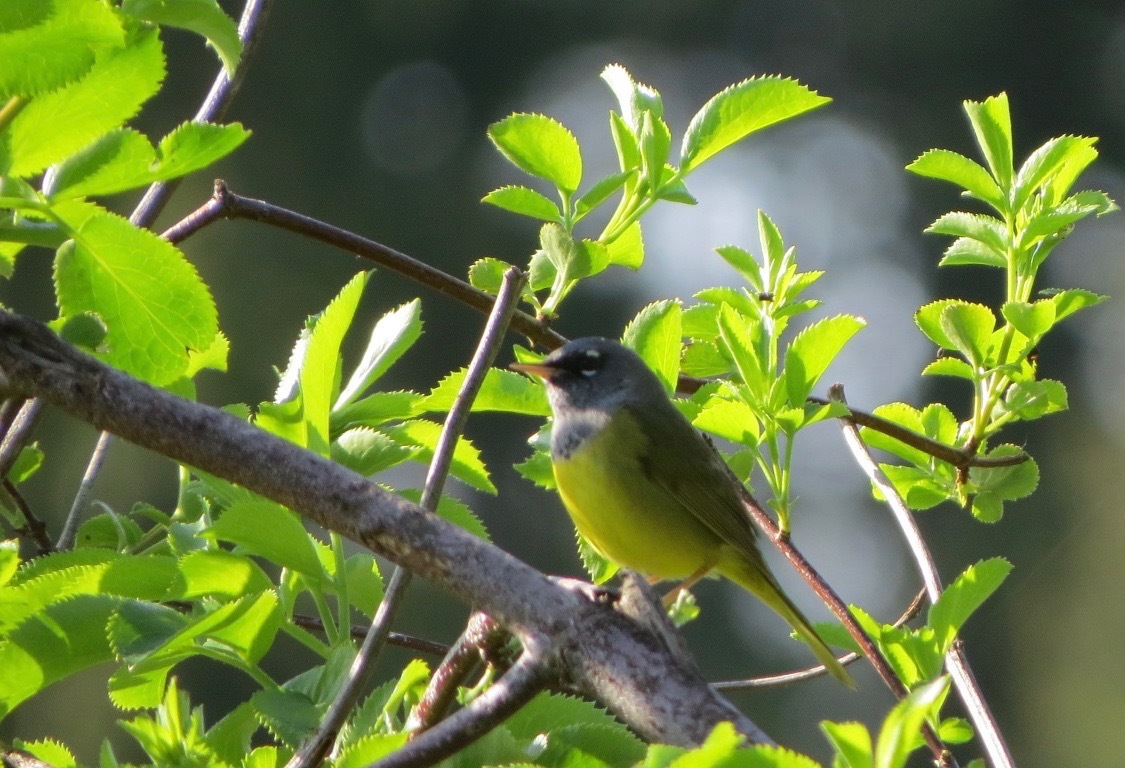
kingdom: Animalia
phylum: Chordata
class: Aves
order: Passeriformes
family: Parulidae
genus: Geothlypis
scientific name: Geothlypis tolmiei
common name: Macgillivray's warbler
